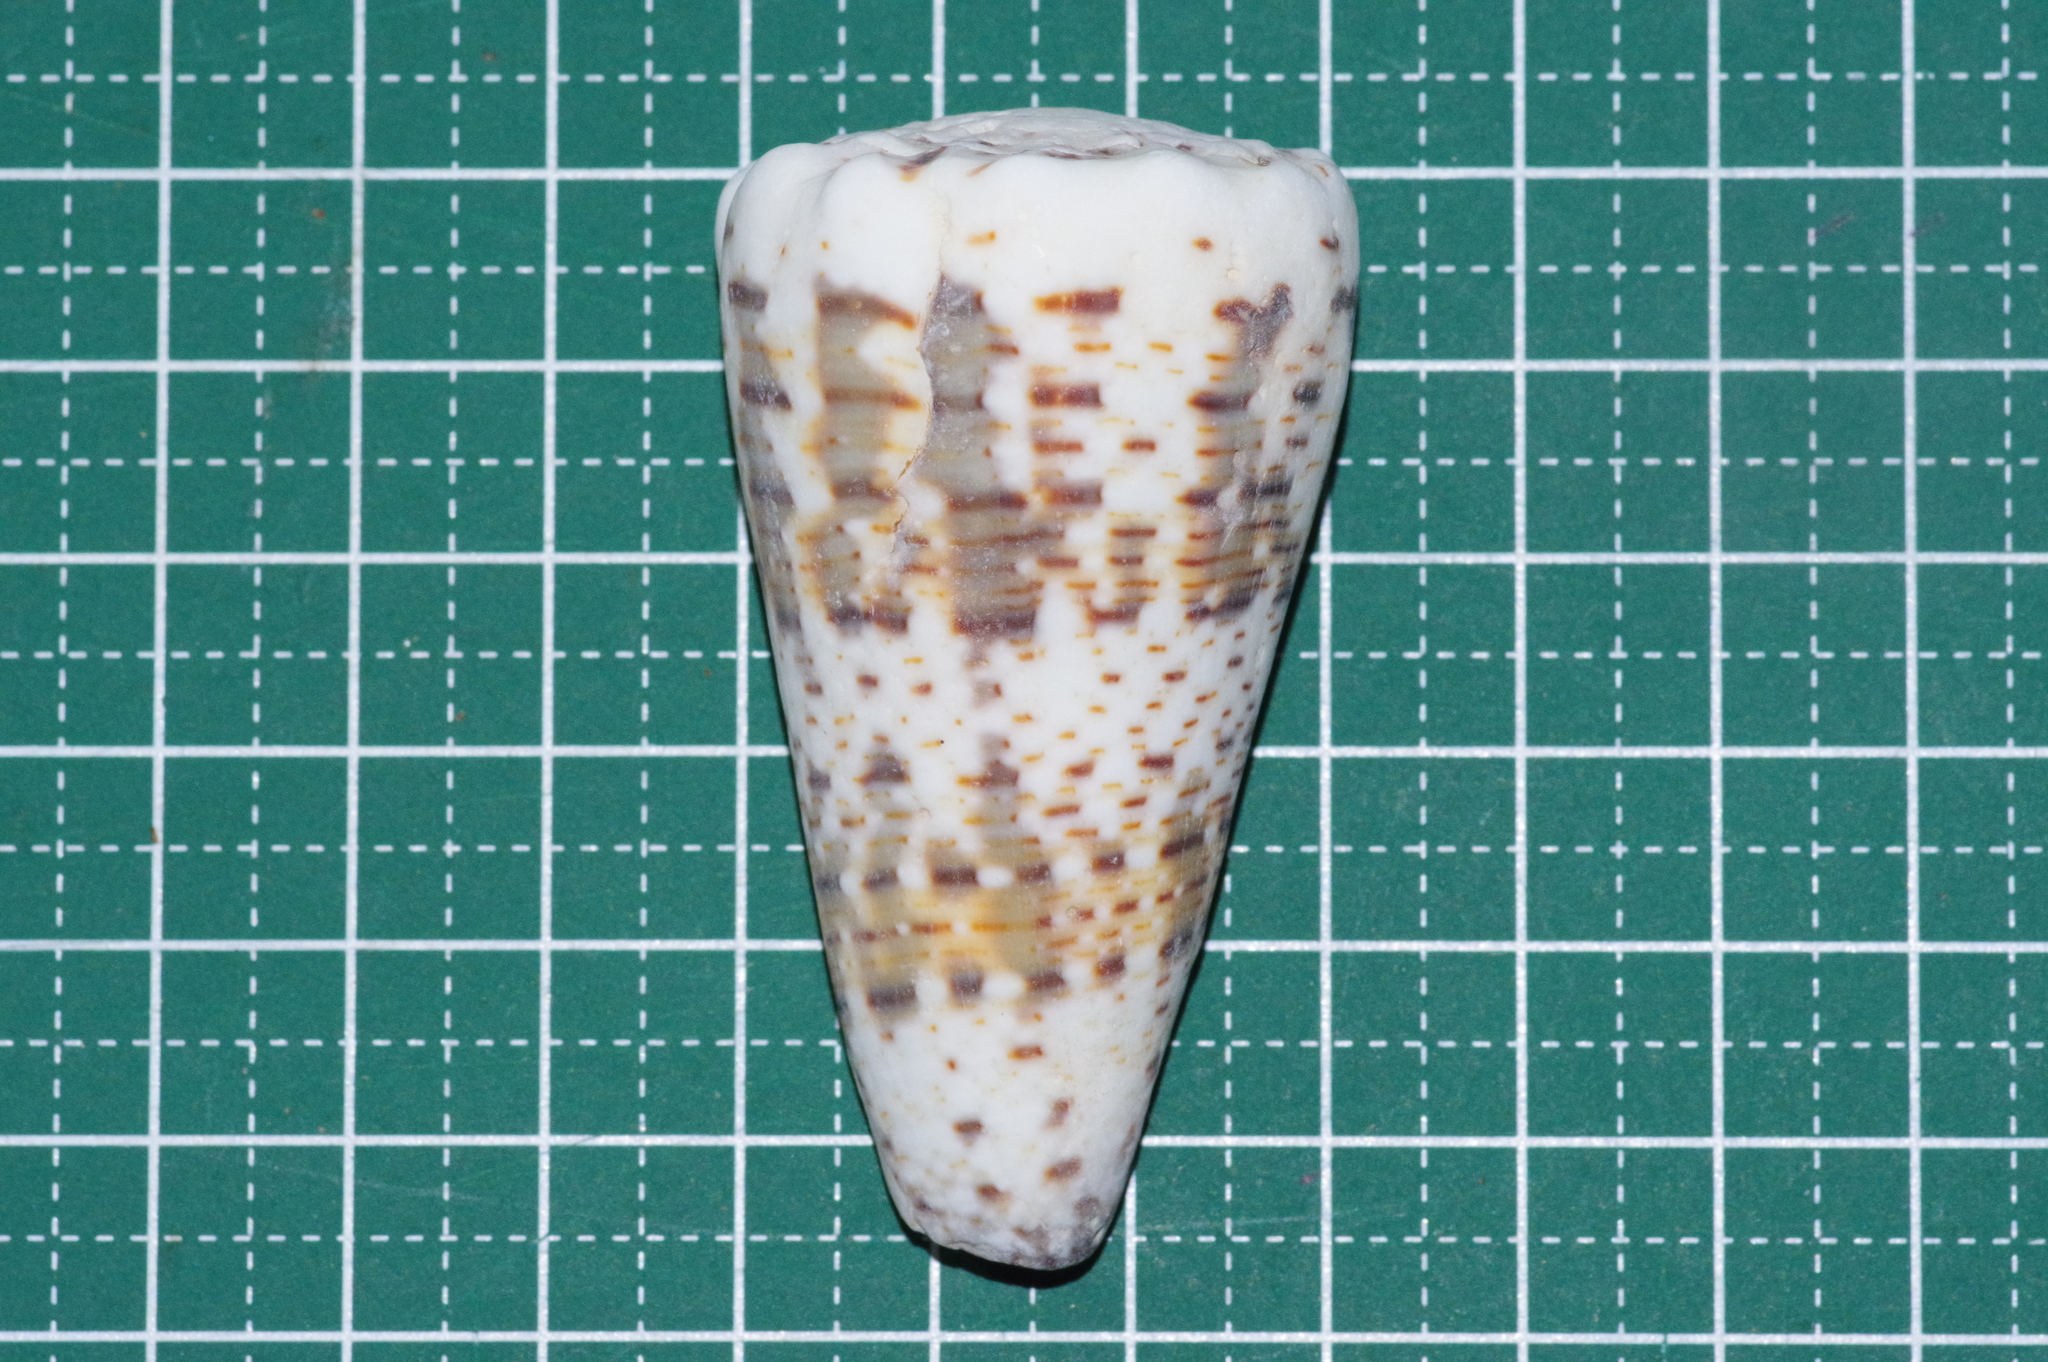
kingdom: Animalia
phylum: Mollusca
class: Gastropoda
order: Neogastropoda
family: Conidae
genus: Conus
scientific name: Conus imperialis
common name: Imperial cone
